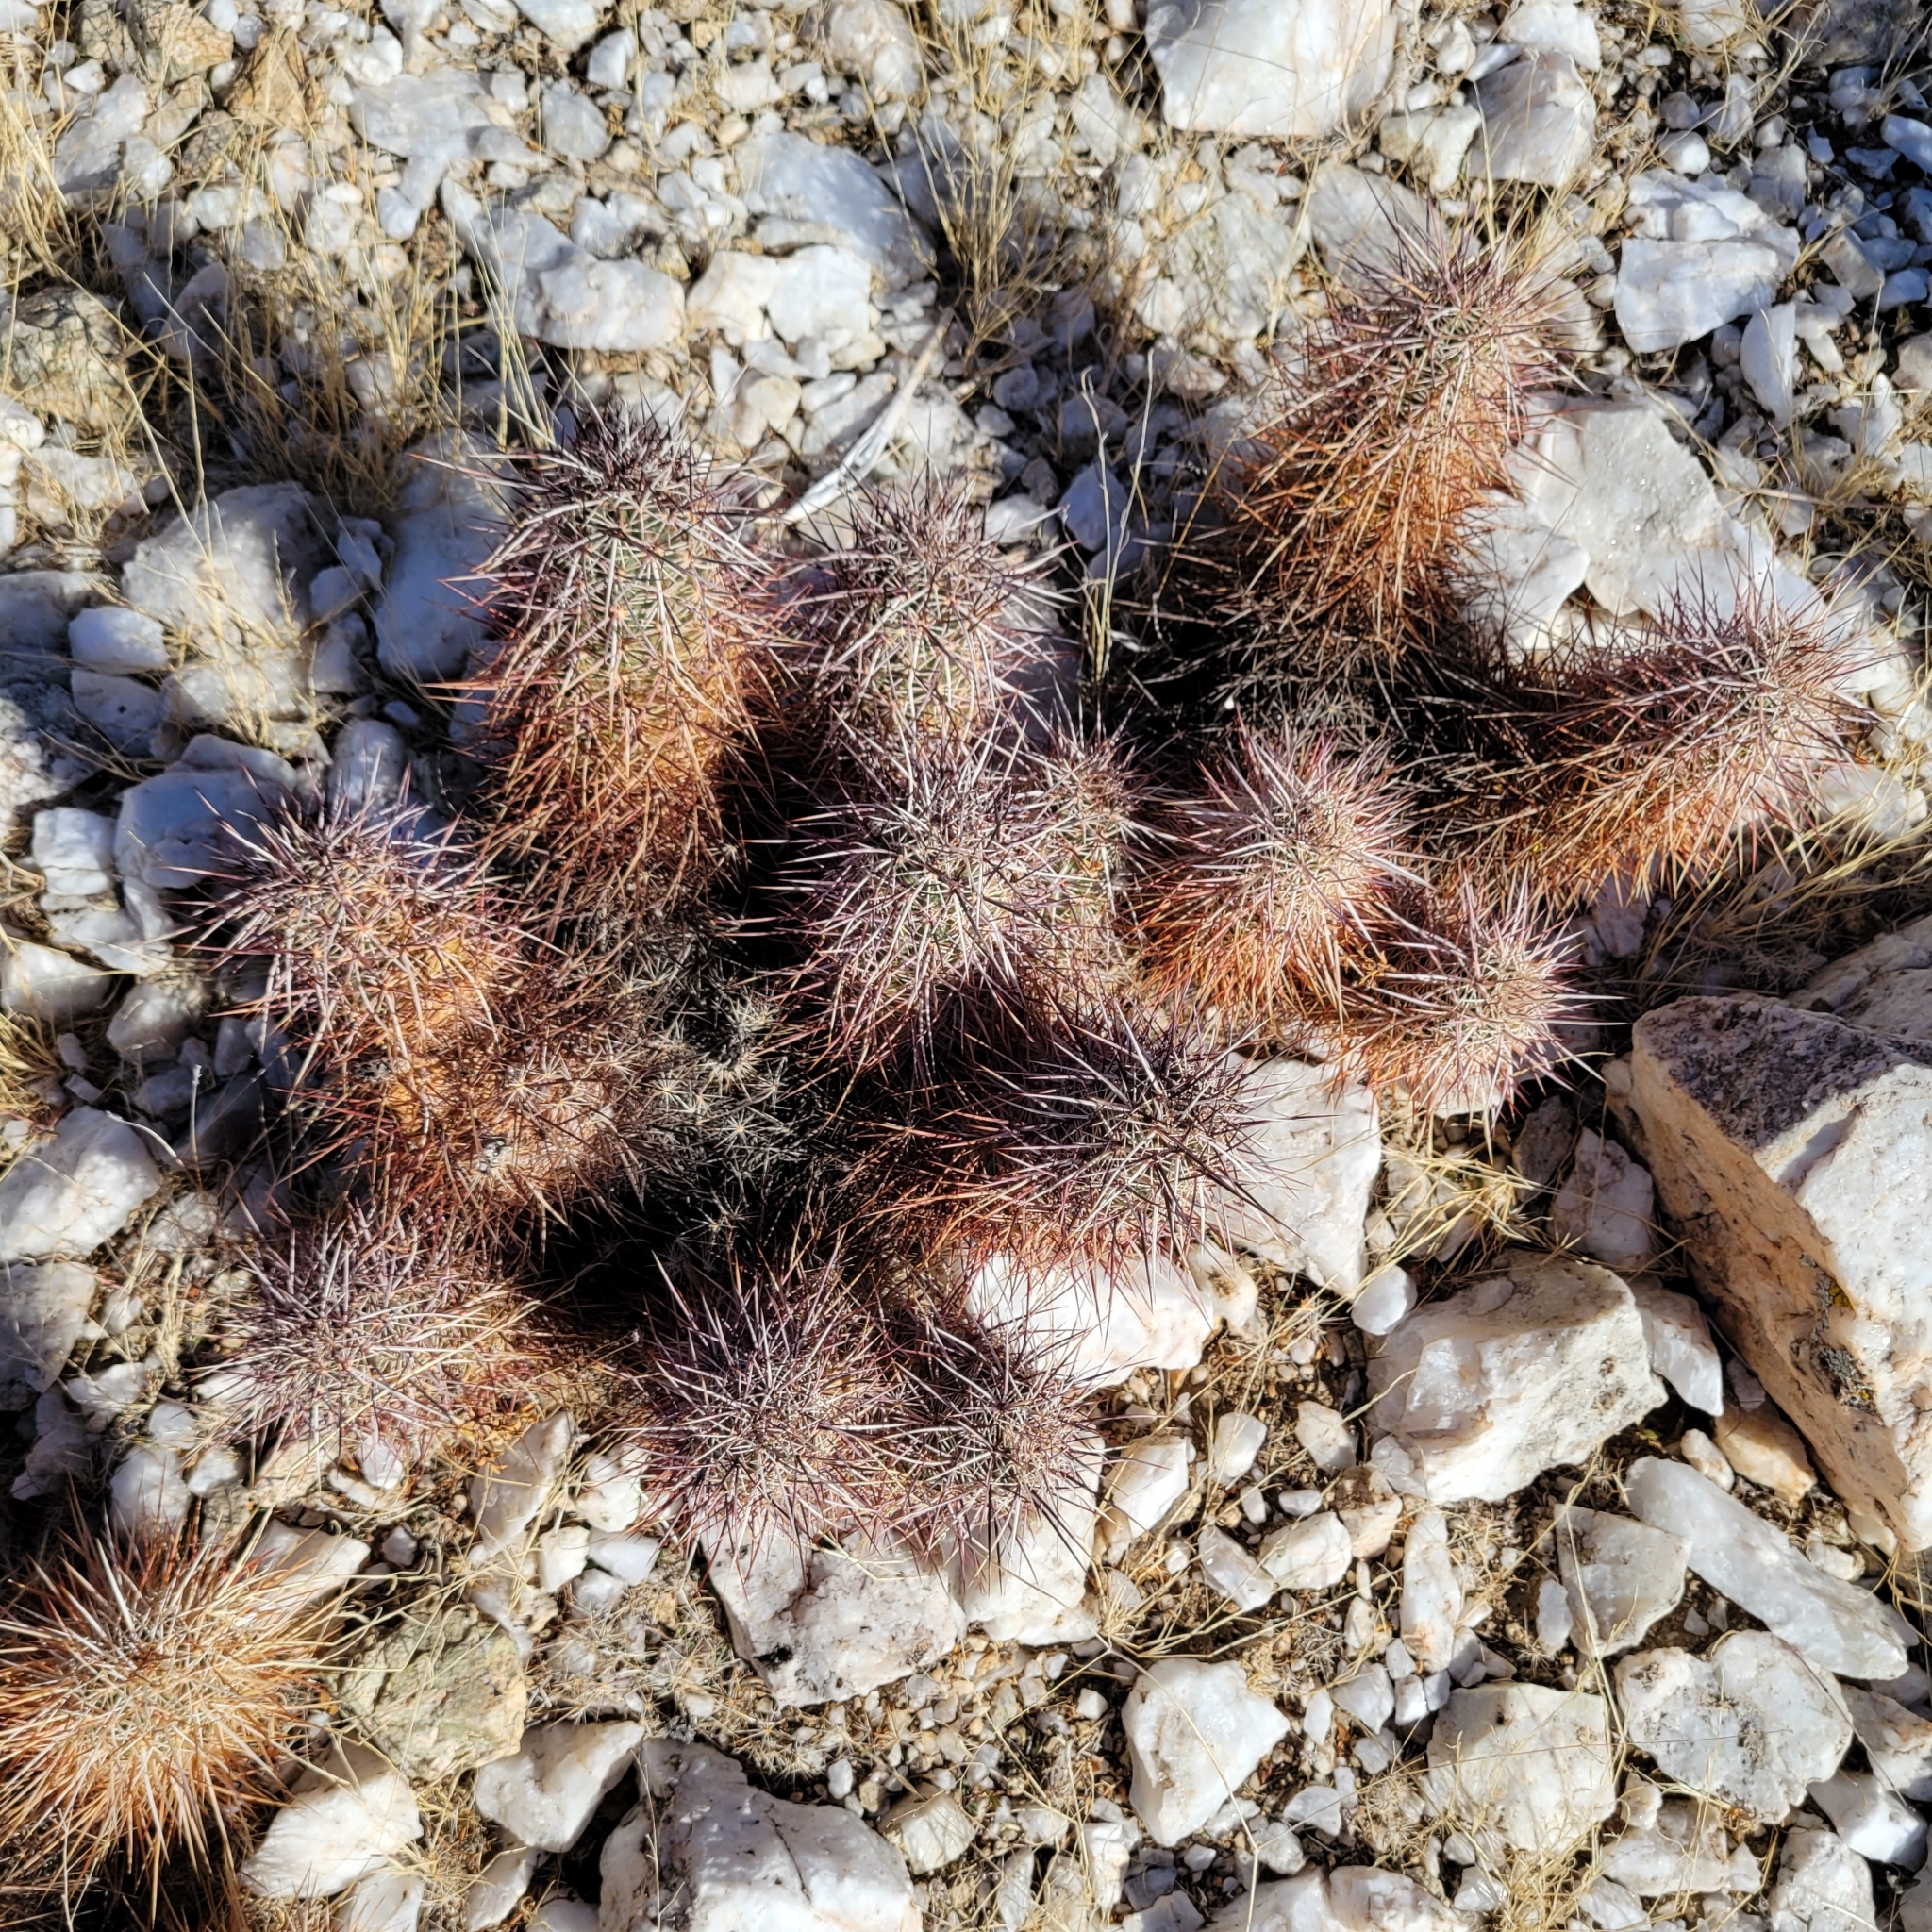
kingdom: Plantae
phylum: Tracheophyta
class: Magnoliopsida
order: Caryophyllales
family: Cactaceae
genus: Echinocereus
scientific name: Echinocereus engelmannii
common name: Engelmann's hedgehog cactus
